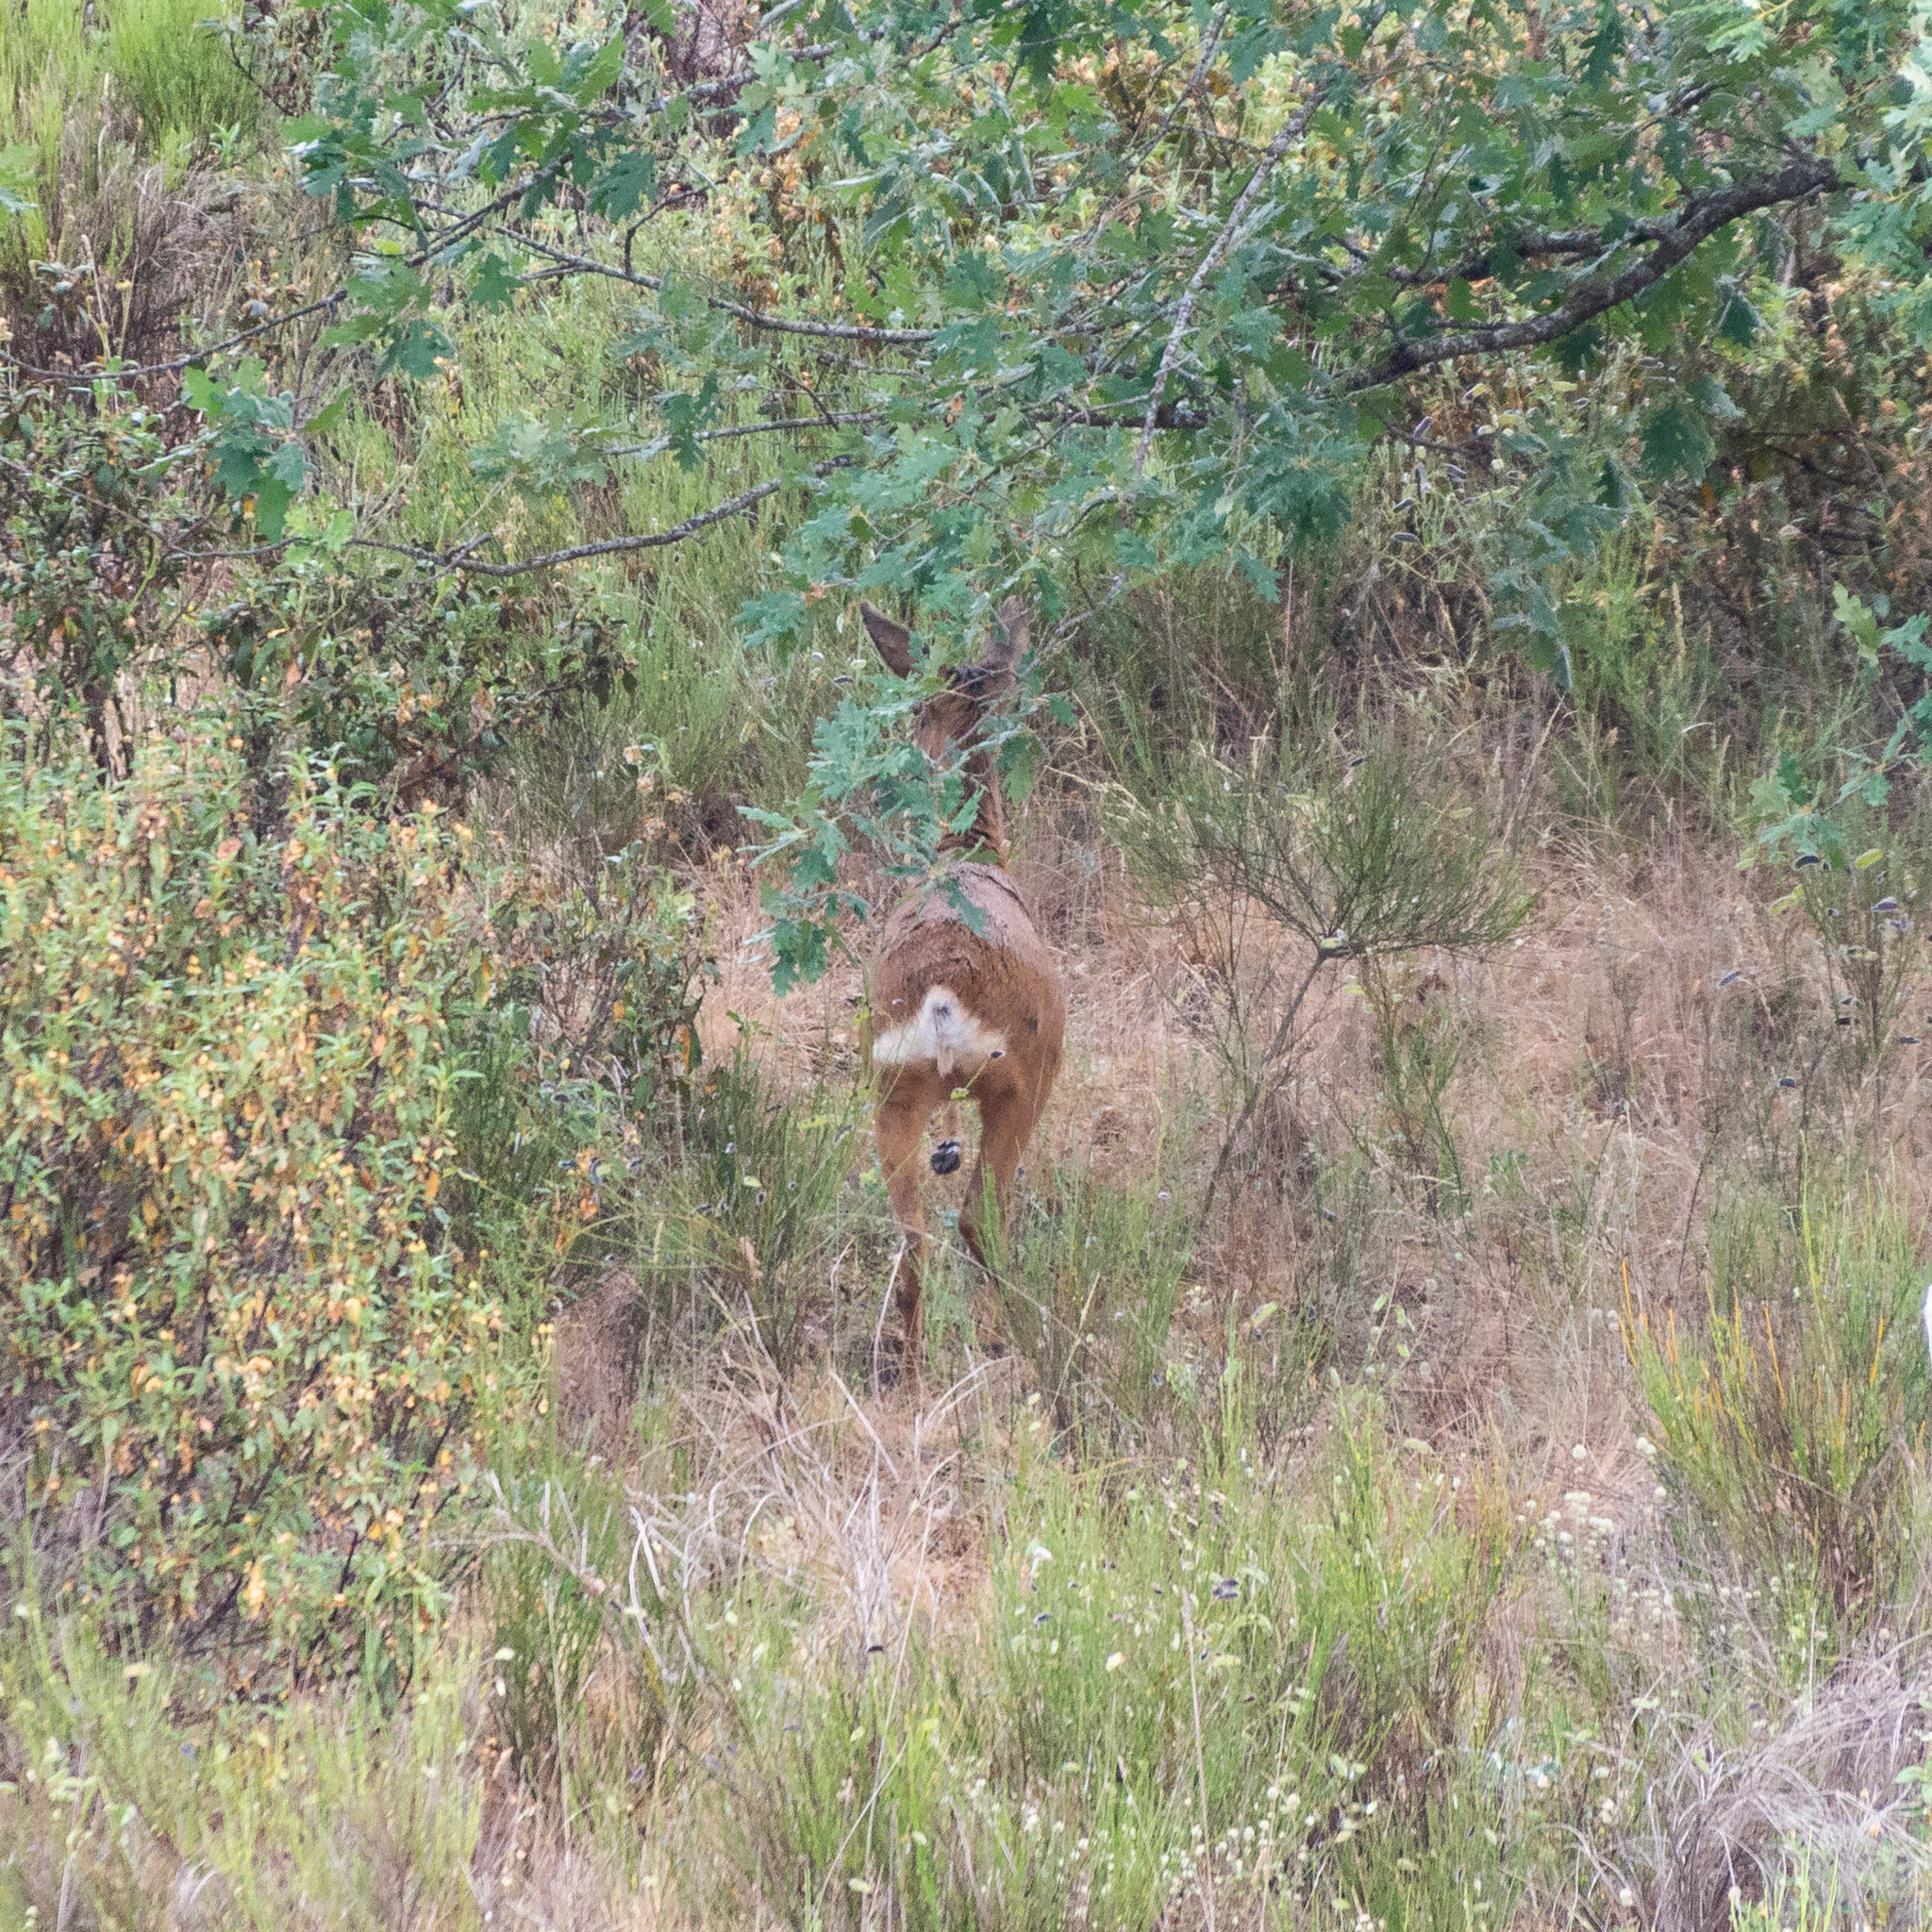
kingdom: Animalia
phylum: Chordata
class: Mammalia
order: Artiodactyla
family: Cervidae
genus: Capreolus
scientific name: Capreolus capreolus
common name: Western roe deer
